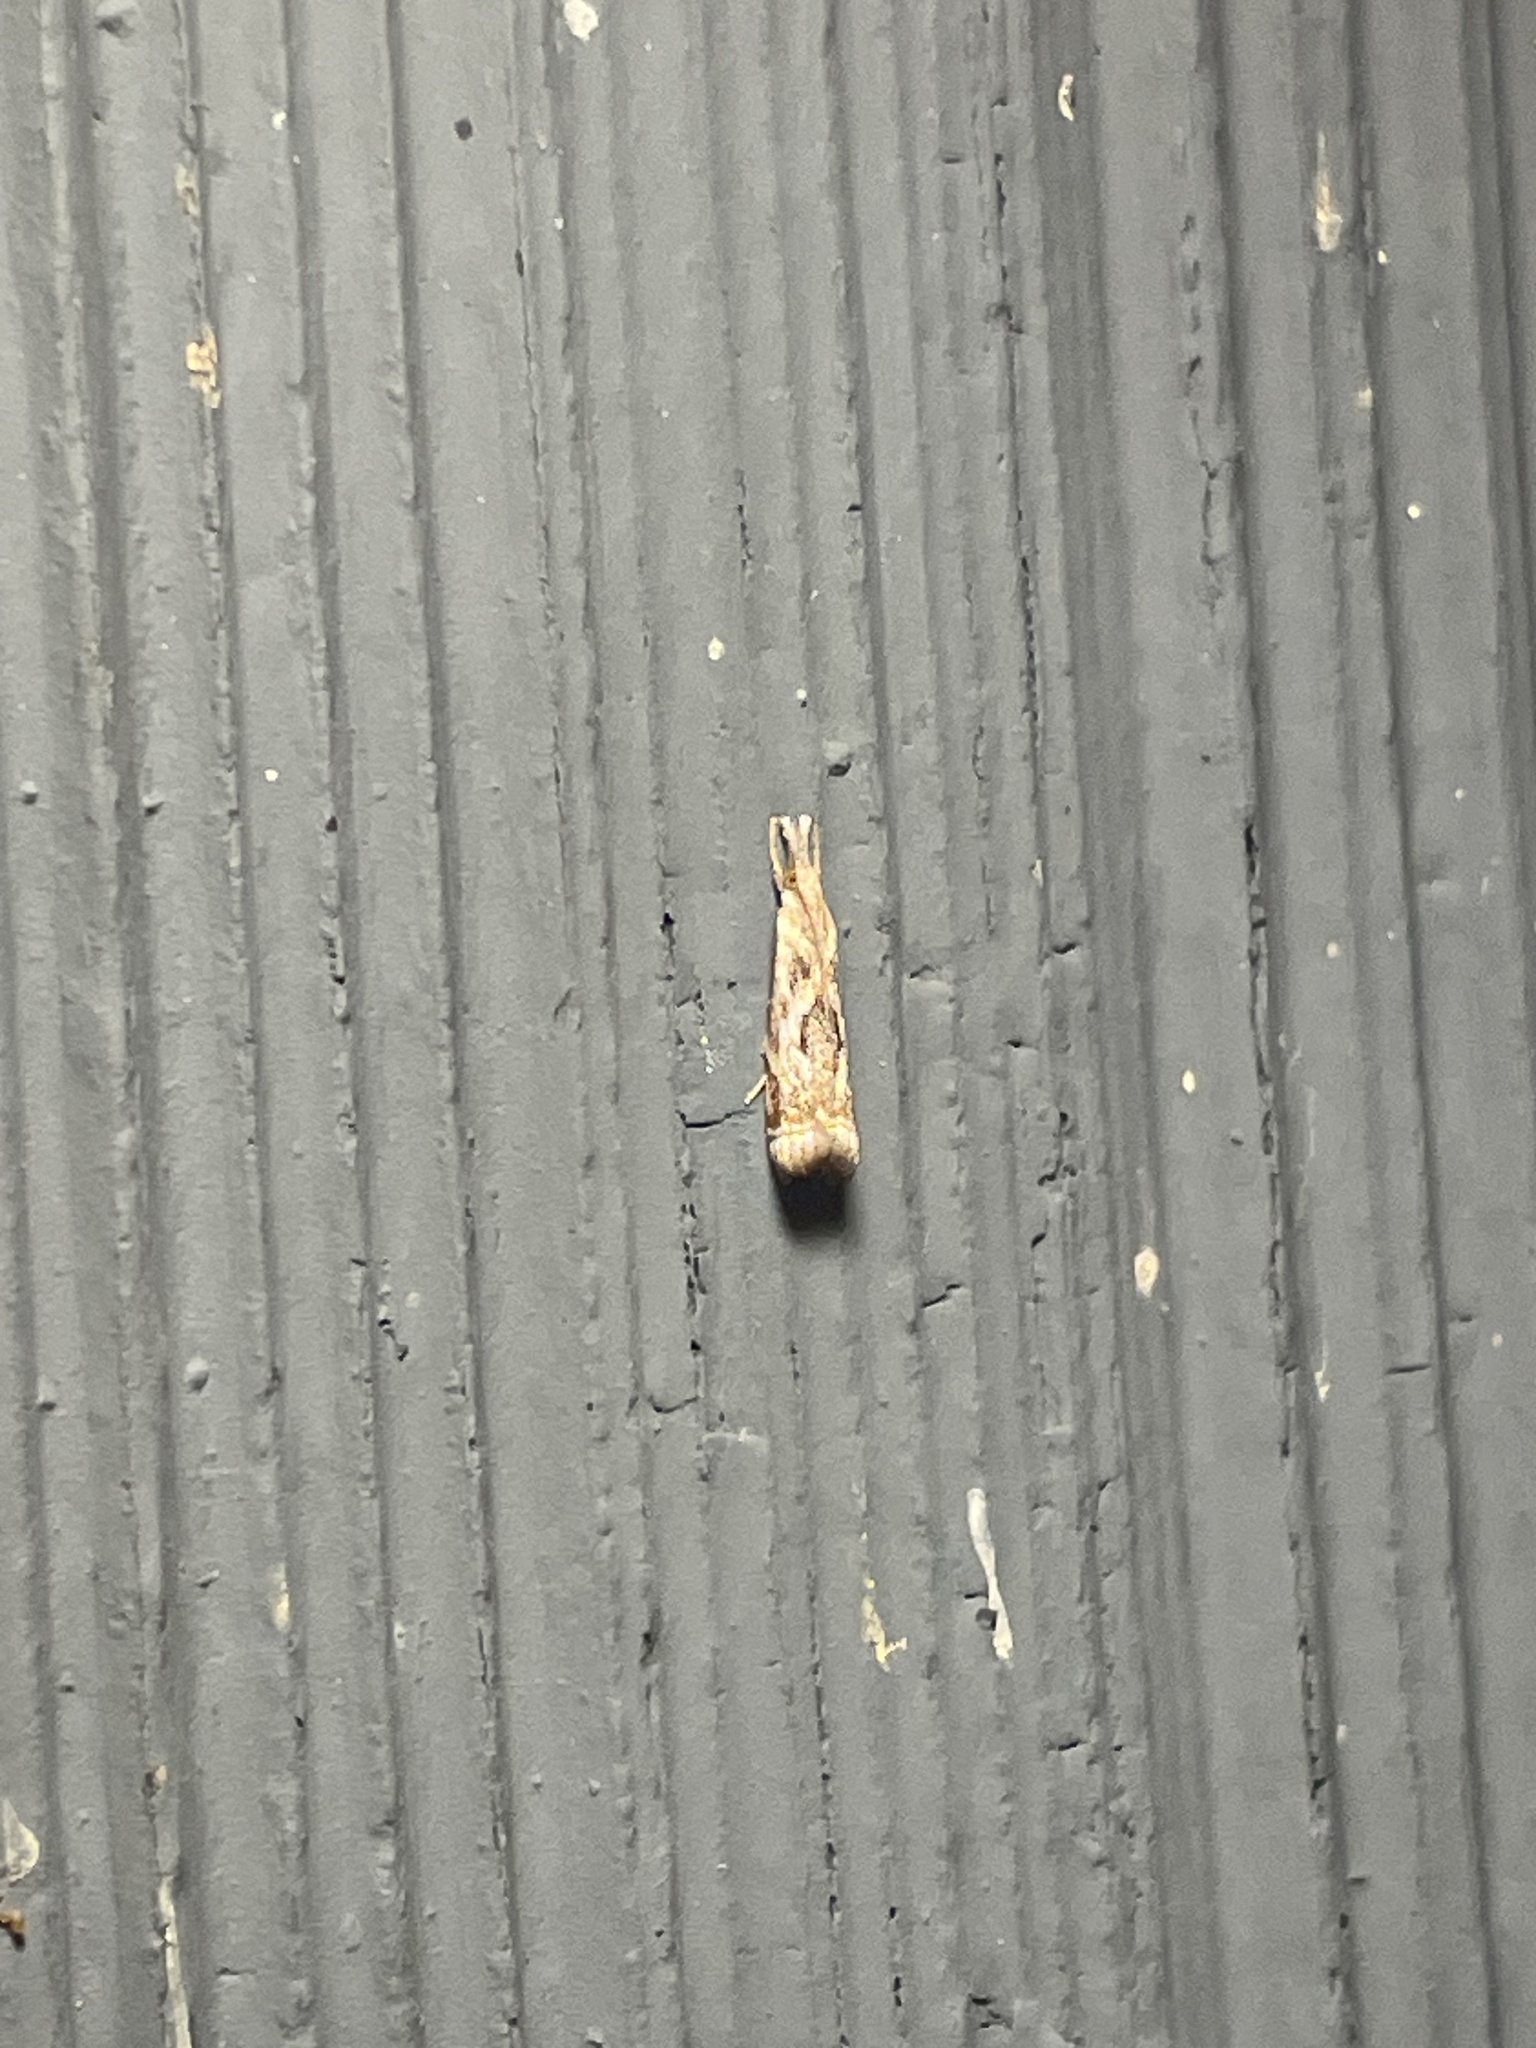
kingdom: Animalia
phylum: Arthropoda
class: Insecta
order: Lepidoptera
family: Crambidae
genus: Microcrambus
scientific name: Microcrambus elegans
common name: Elegant grass-veneer
